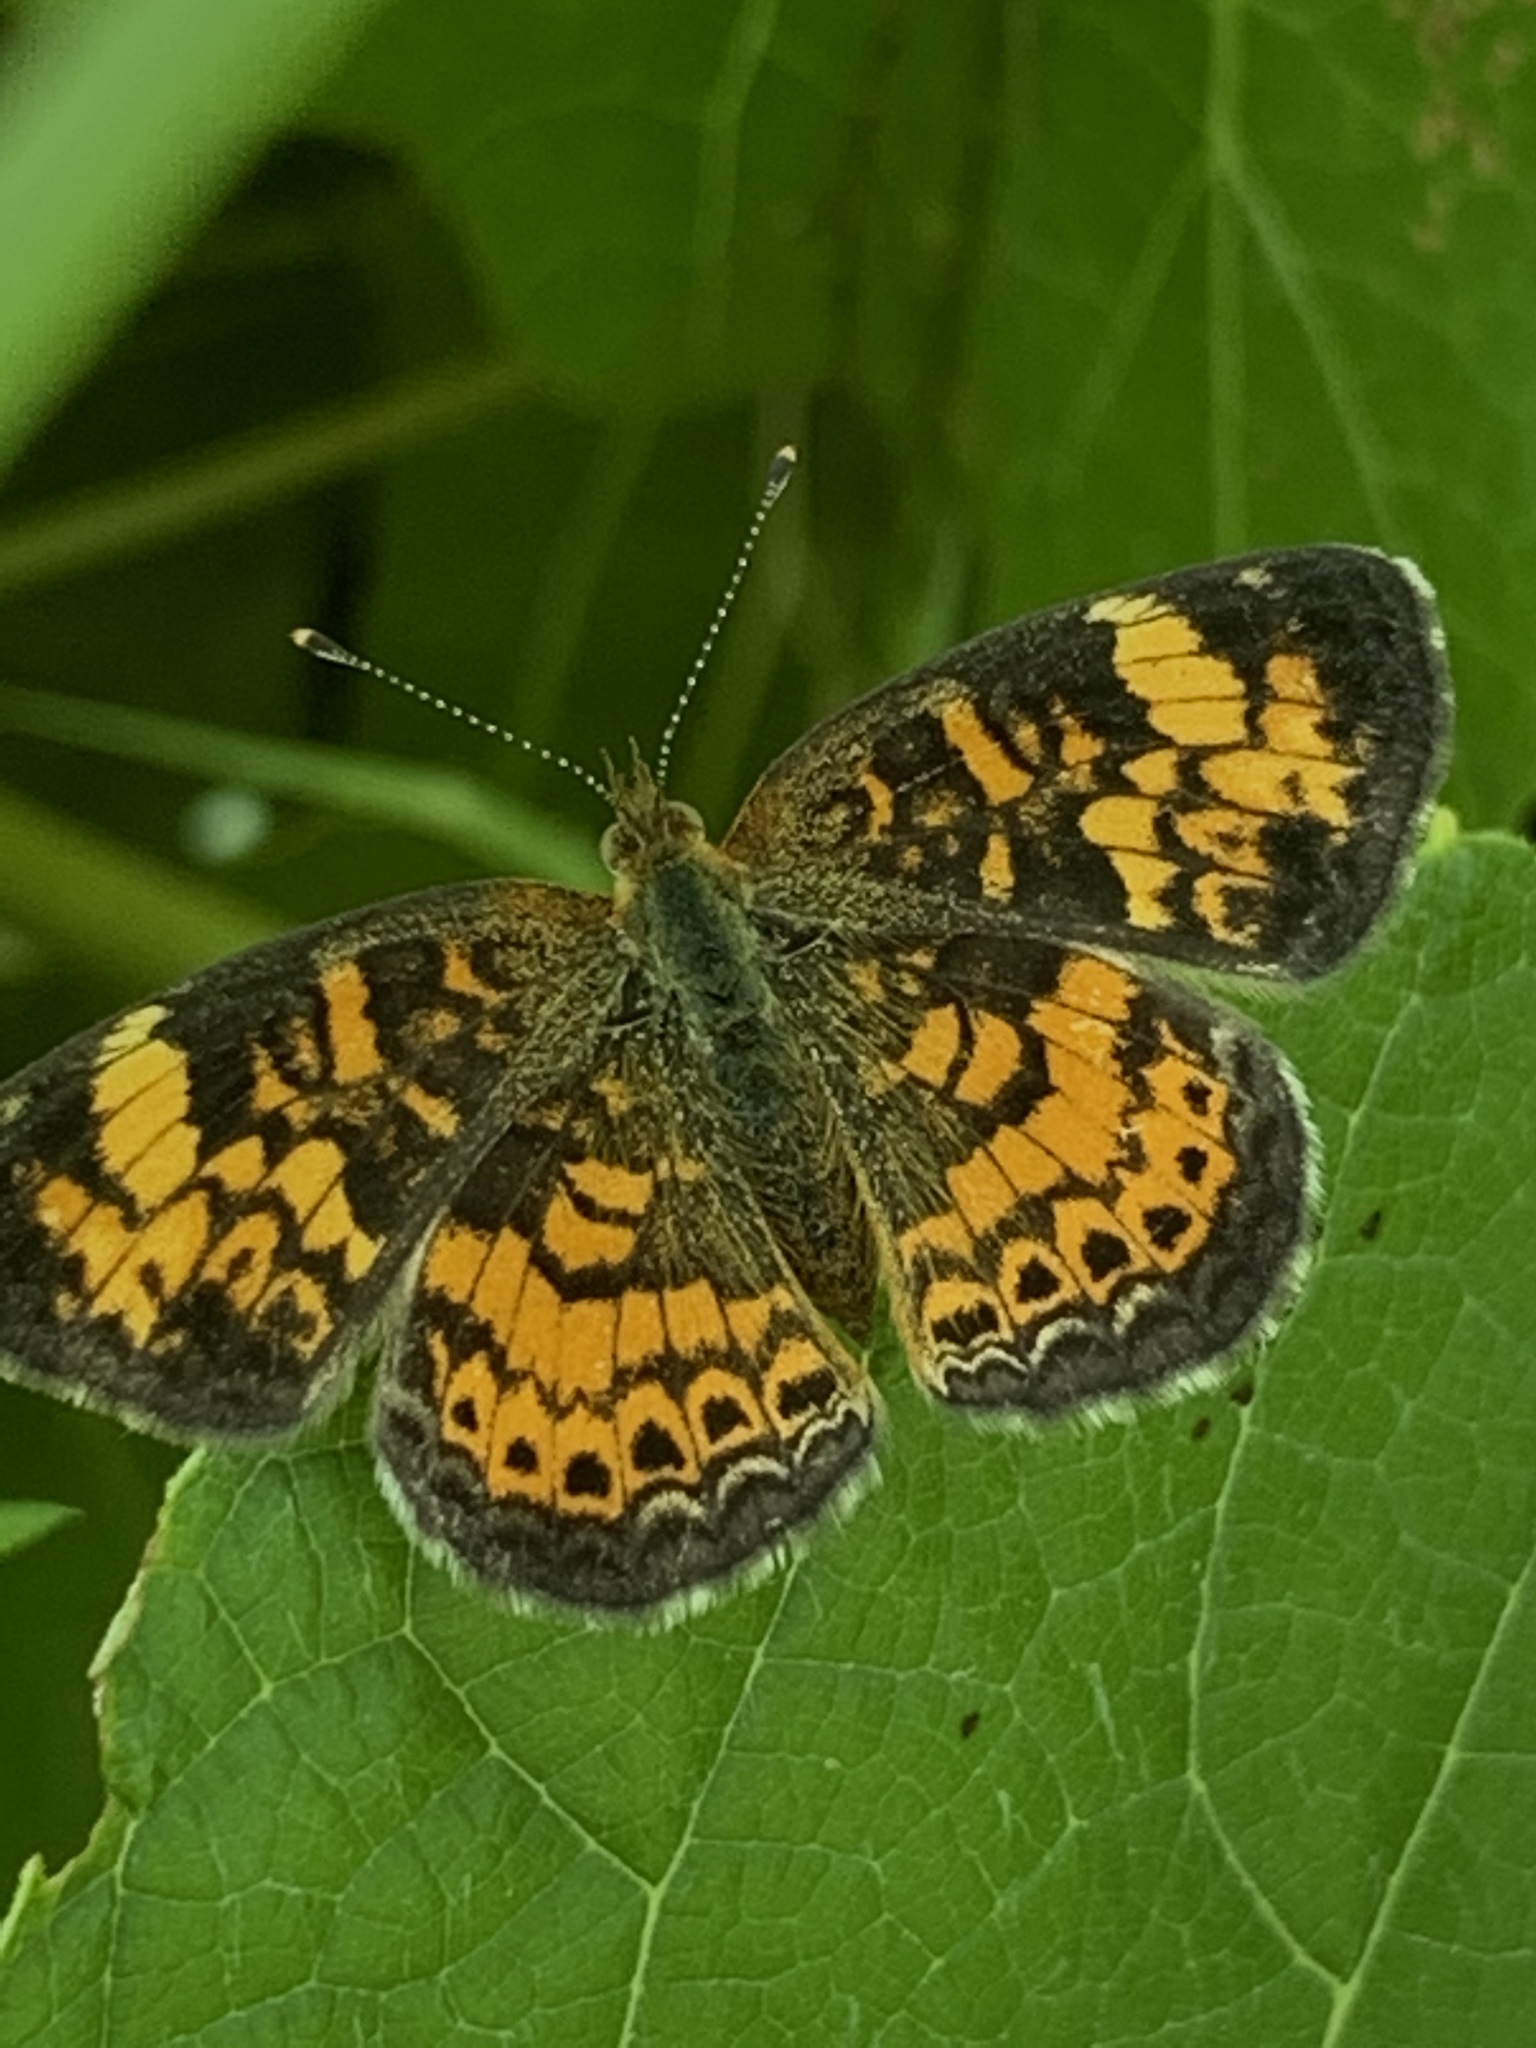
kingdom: Animalia
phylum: Arthropoda
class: Insecta
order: Lepidoptera
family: Nymphalidae
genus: Phyciodes
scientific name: Phyciodes tharos
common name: Pearl crescent
